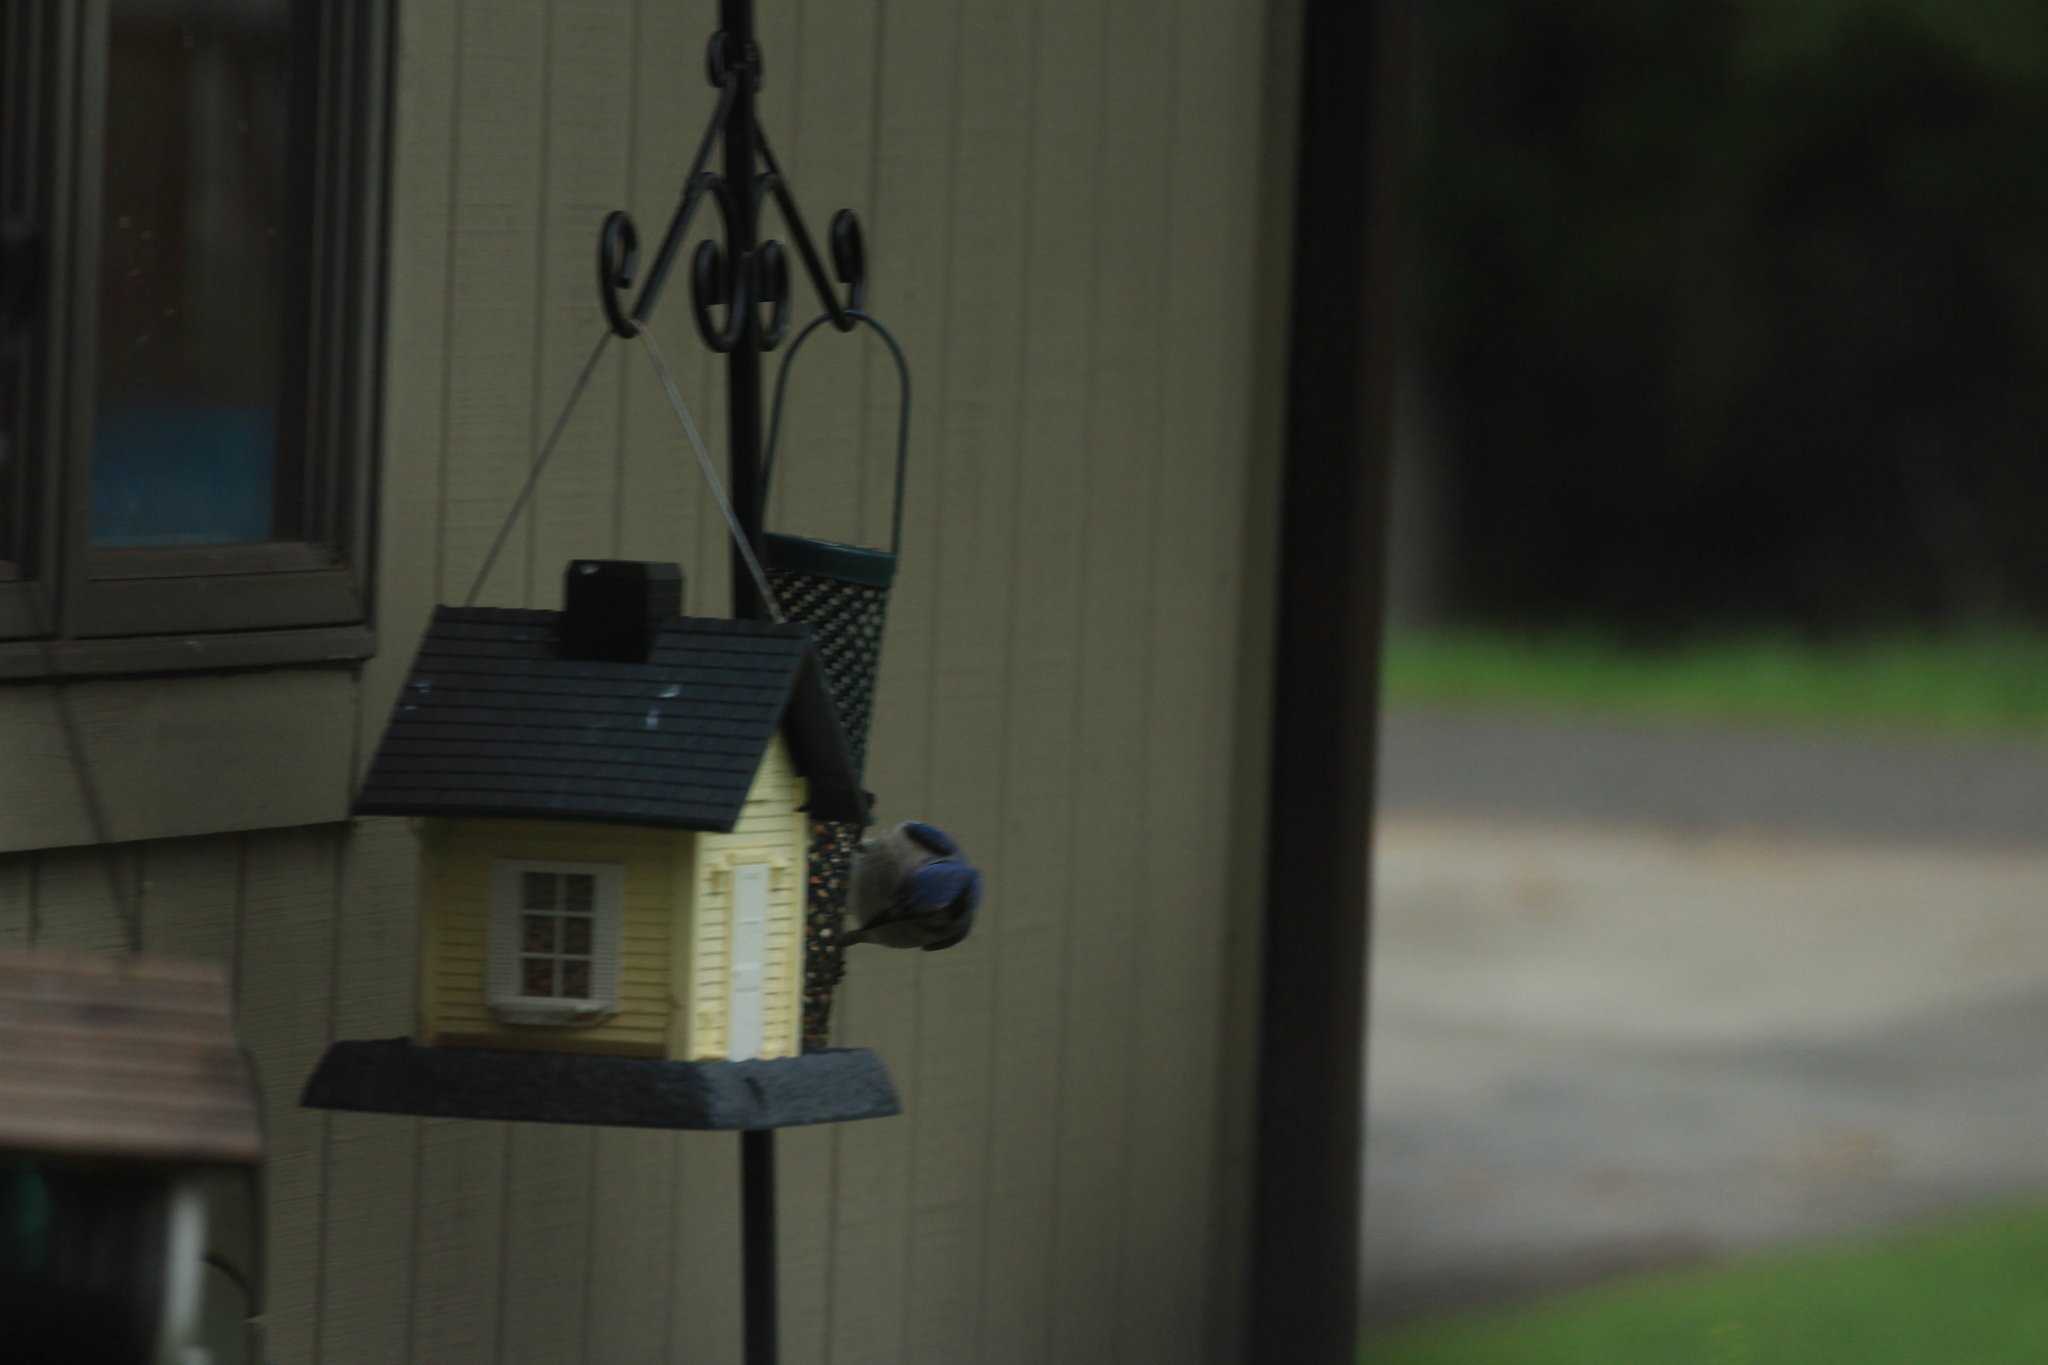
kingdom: Animalia
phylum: Chordata
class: Aves
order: Passeriformes
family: Corvidae
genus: Cyanocitta
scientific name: Cyanocitta cristata
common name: Blue jay
